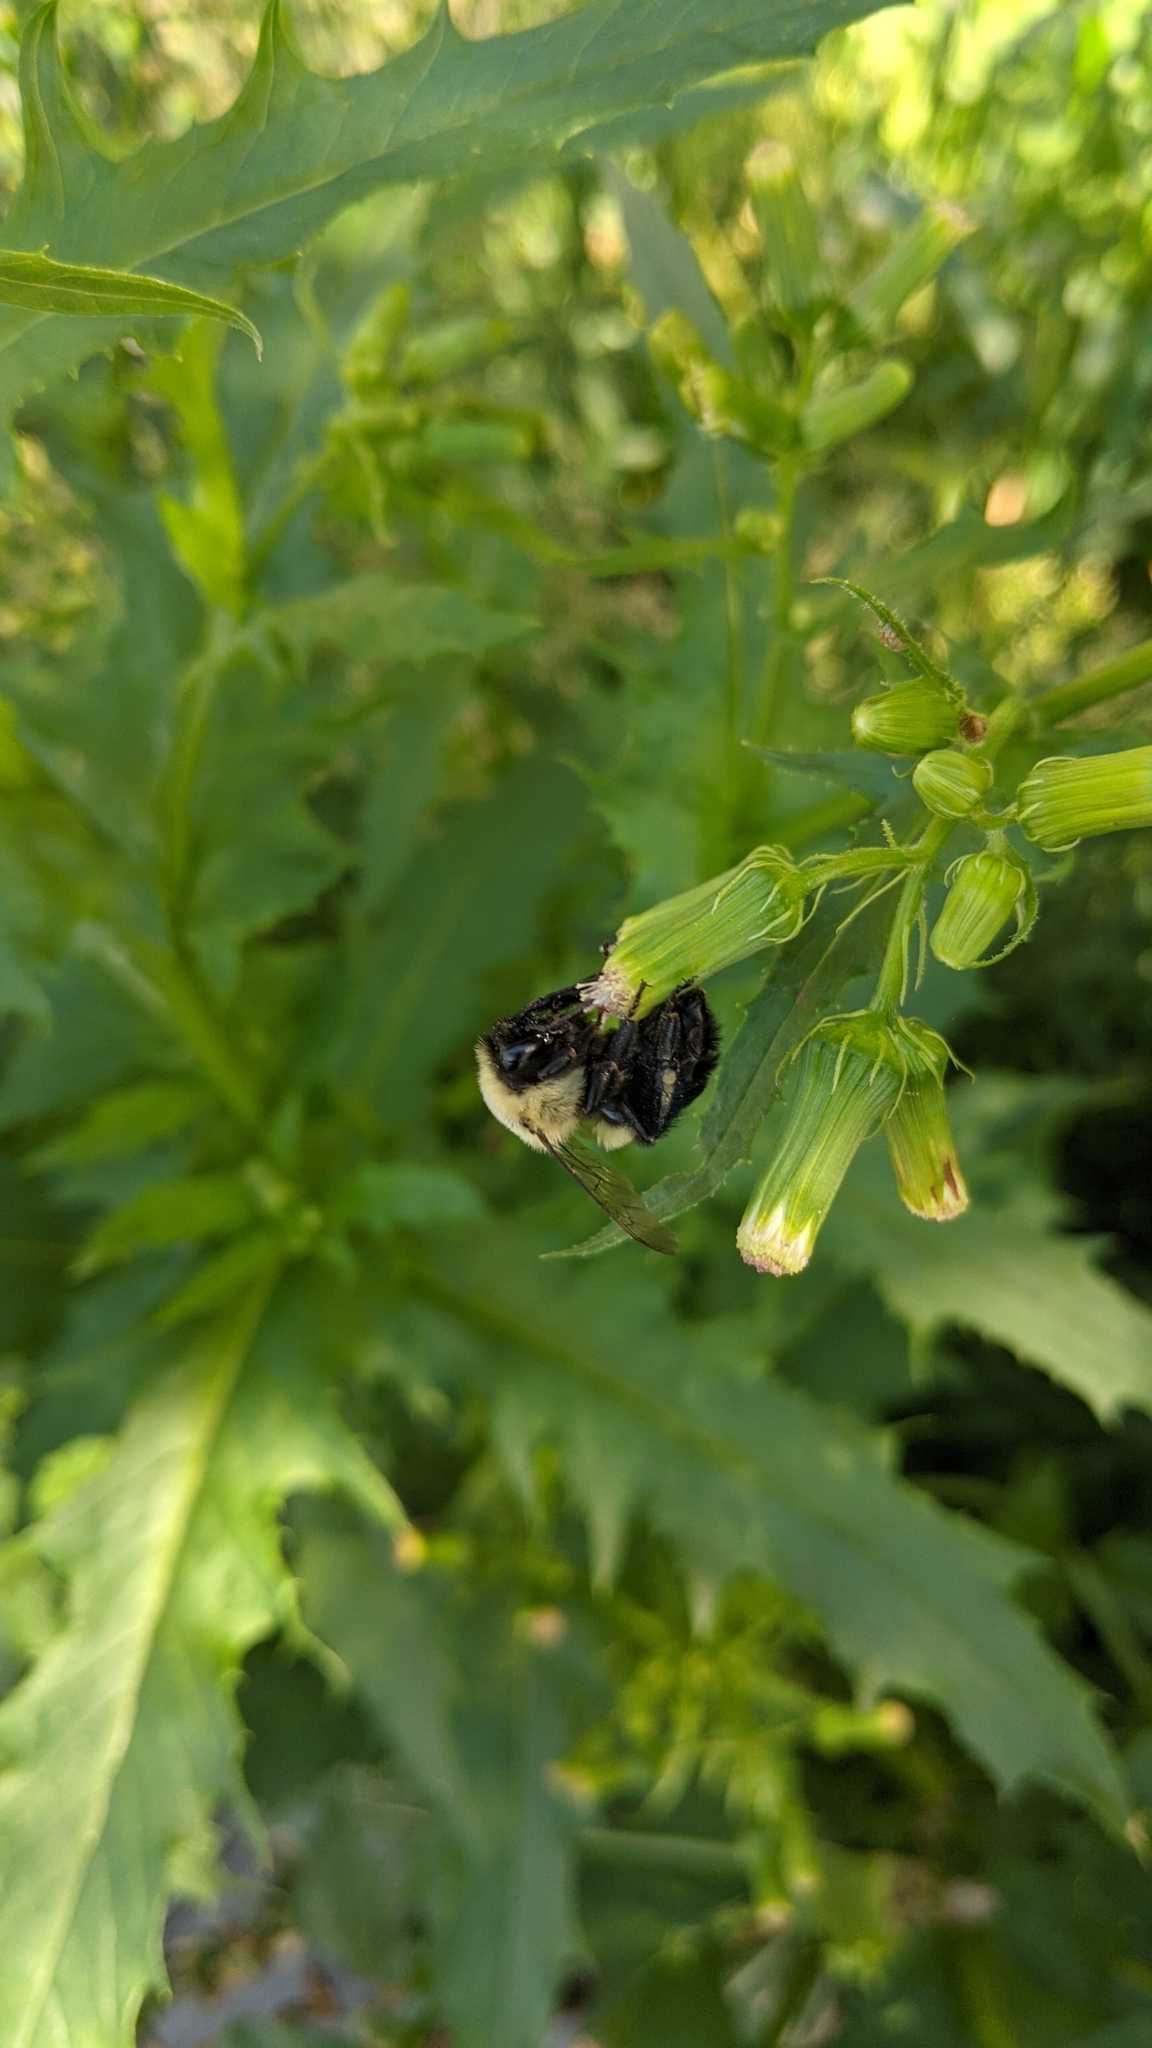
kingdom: Animalia
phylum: Arthropoda
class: Insecta
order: Hymenoptera
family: Apidae
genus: Bombus
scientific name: Bombus impatiens
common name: Common eastern bumble bee
